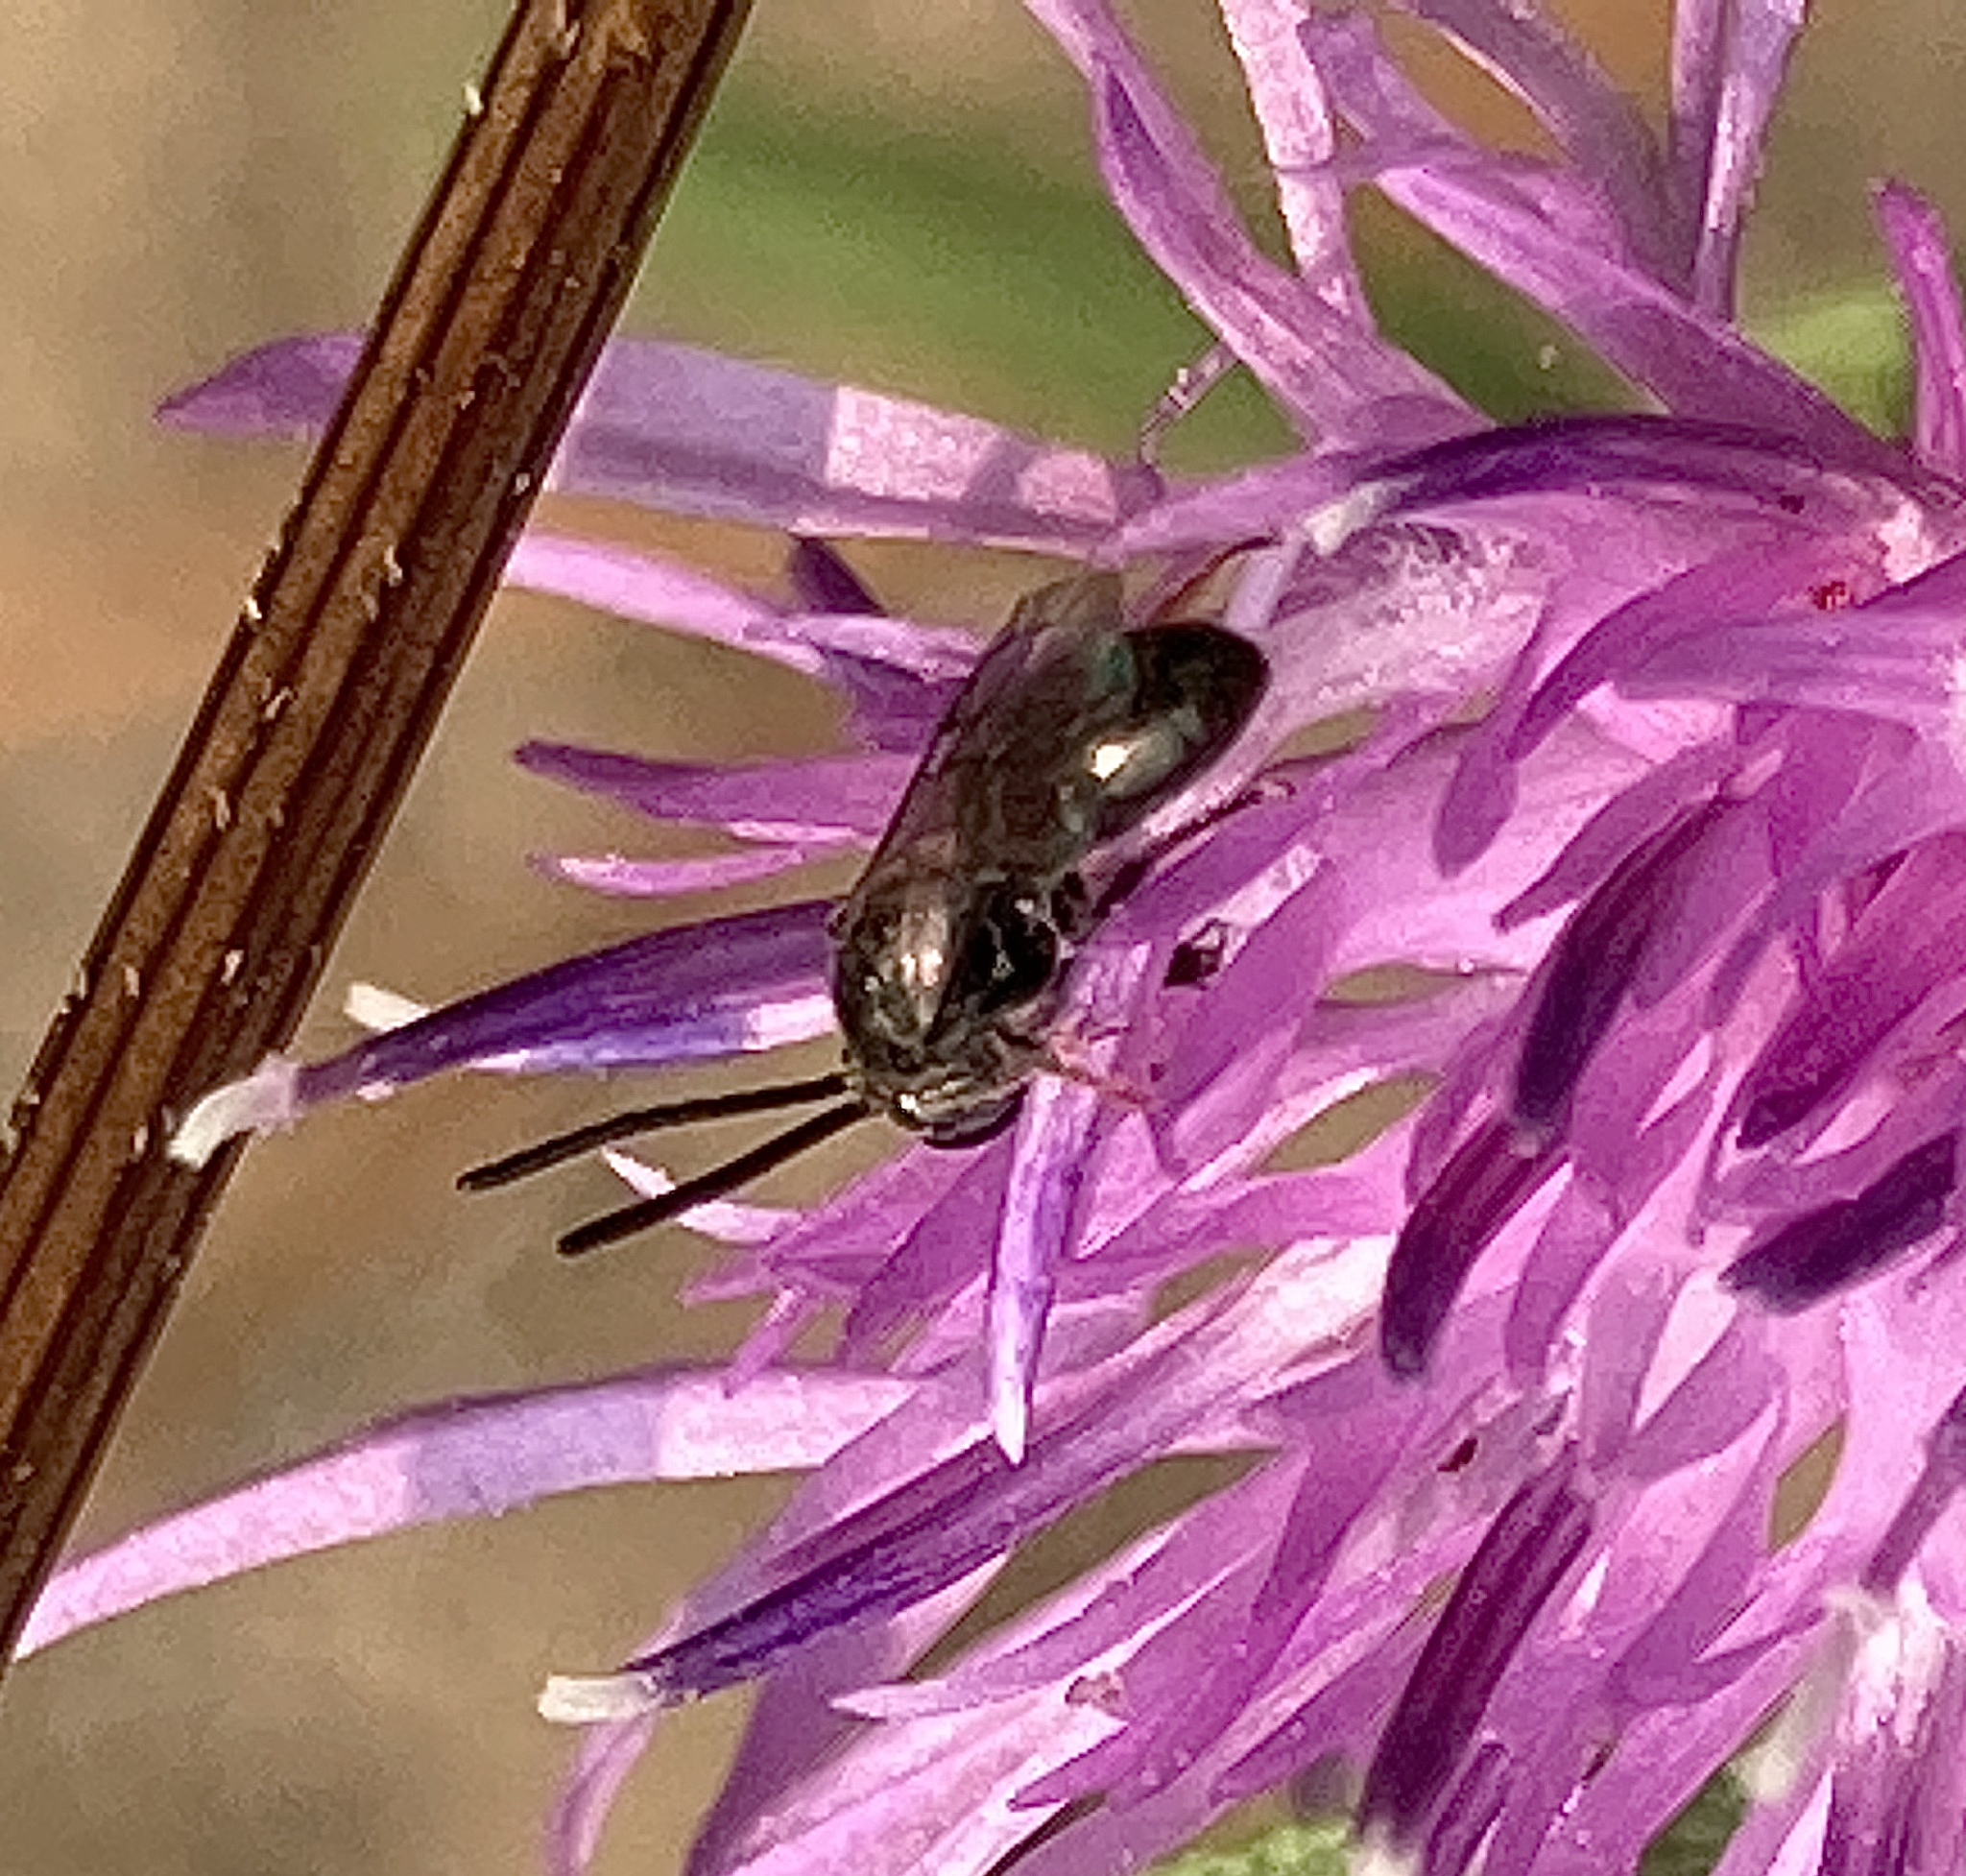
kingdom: Animalia
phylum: Arthropoda
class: Insecta
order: Hymenoptera
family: Halictidae
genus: Dialictus
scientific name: Dialictus
